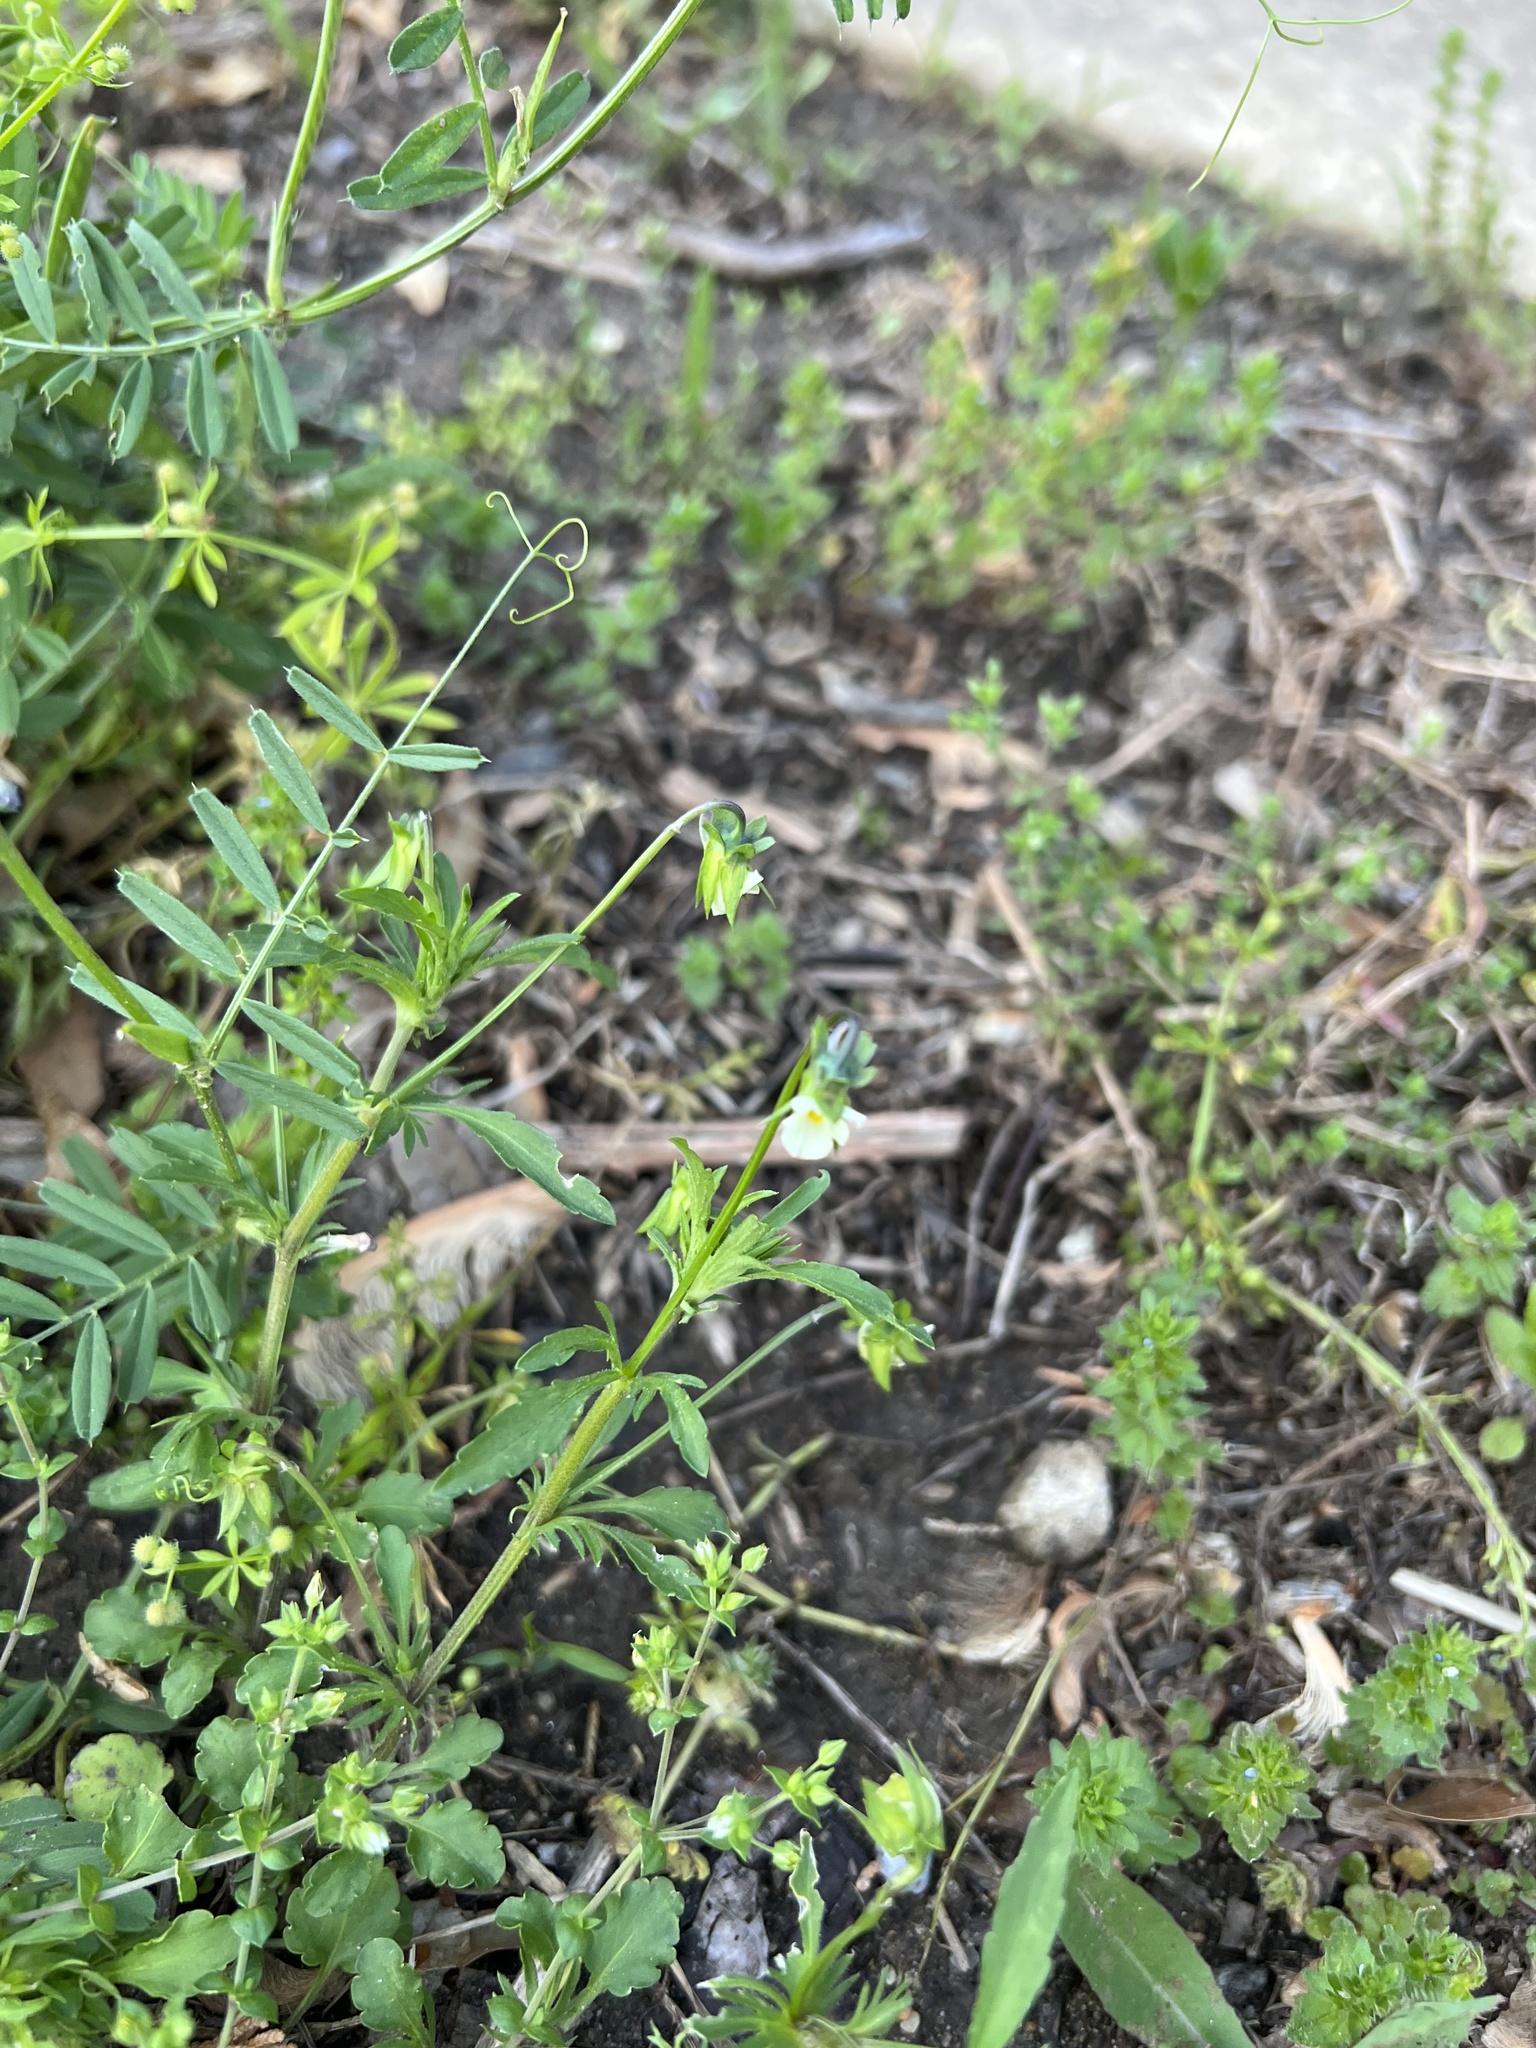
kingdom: Plantae
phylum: Tracheophyta
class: Magnoliopsida
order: Malpighiales
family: Violaceae
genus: Viola
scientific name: Viola arvensis
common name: Field pansy
